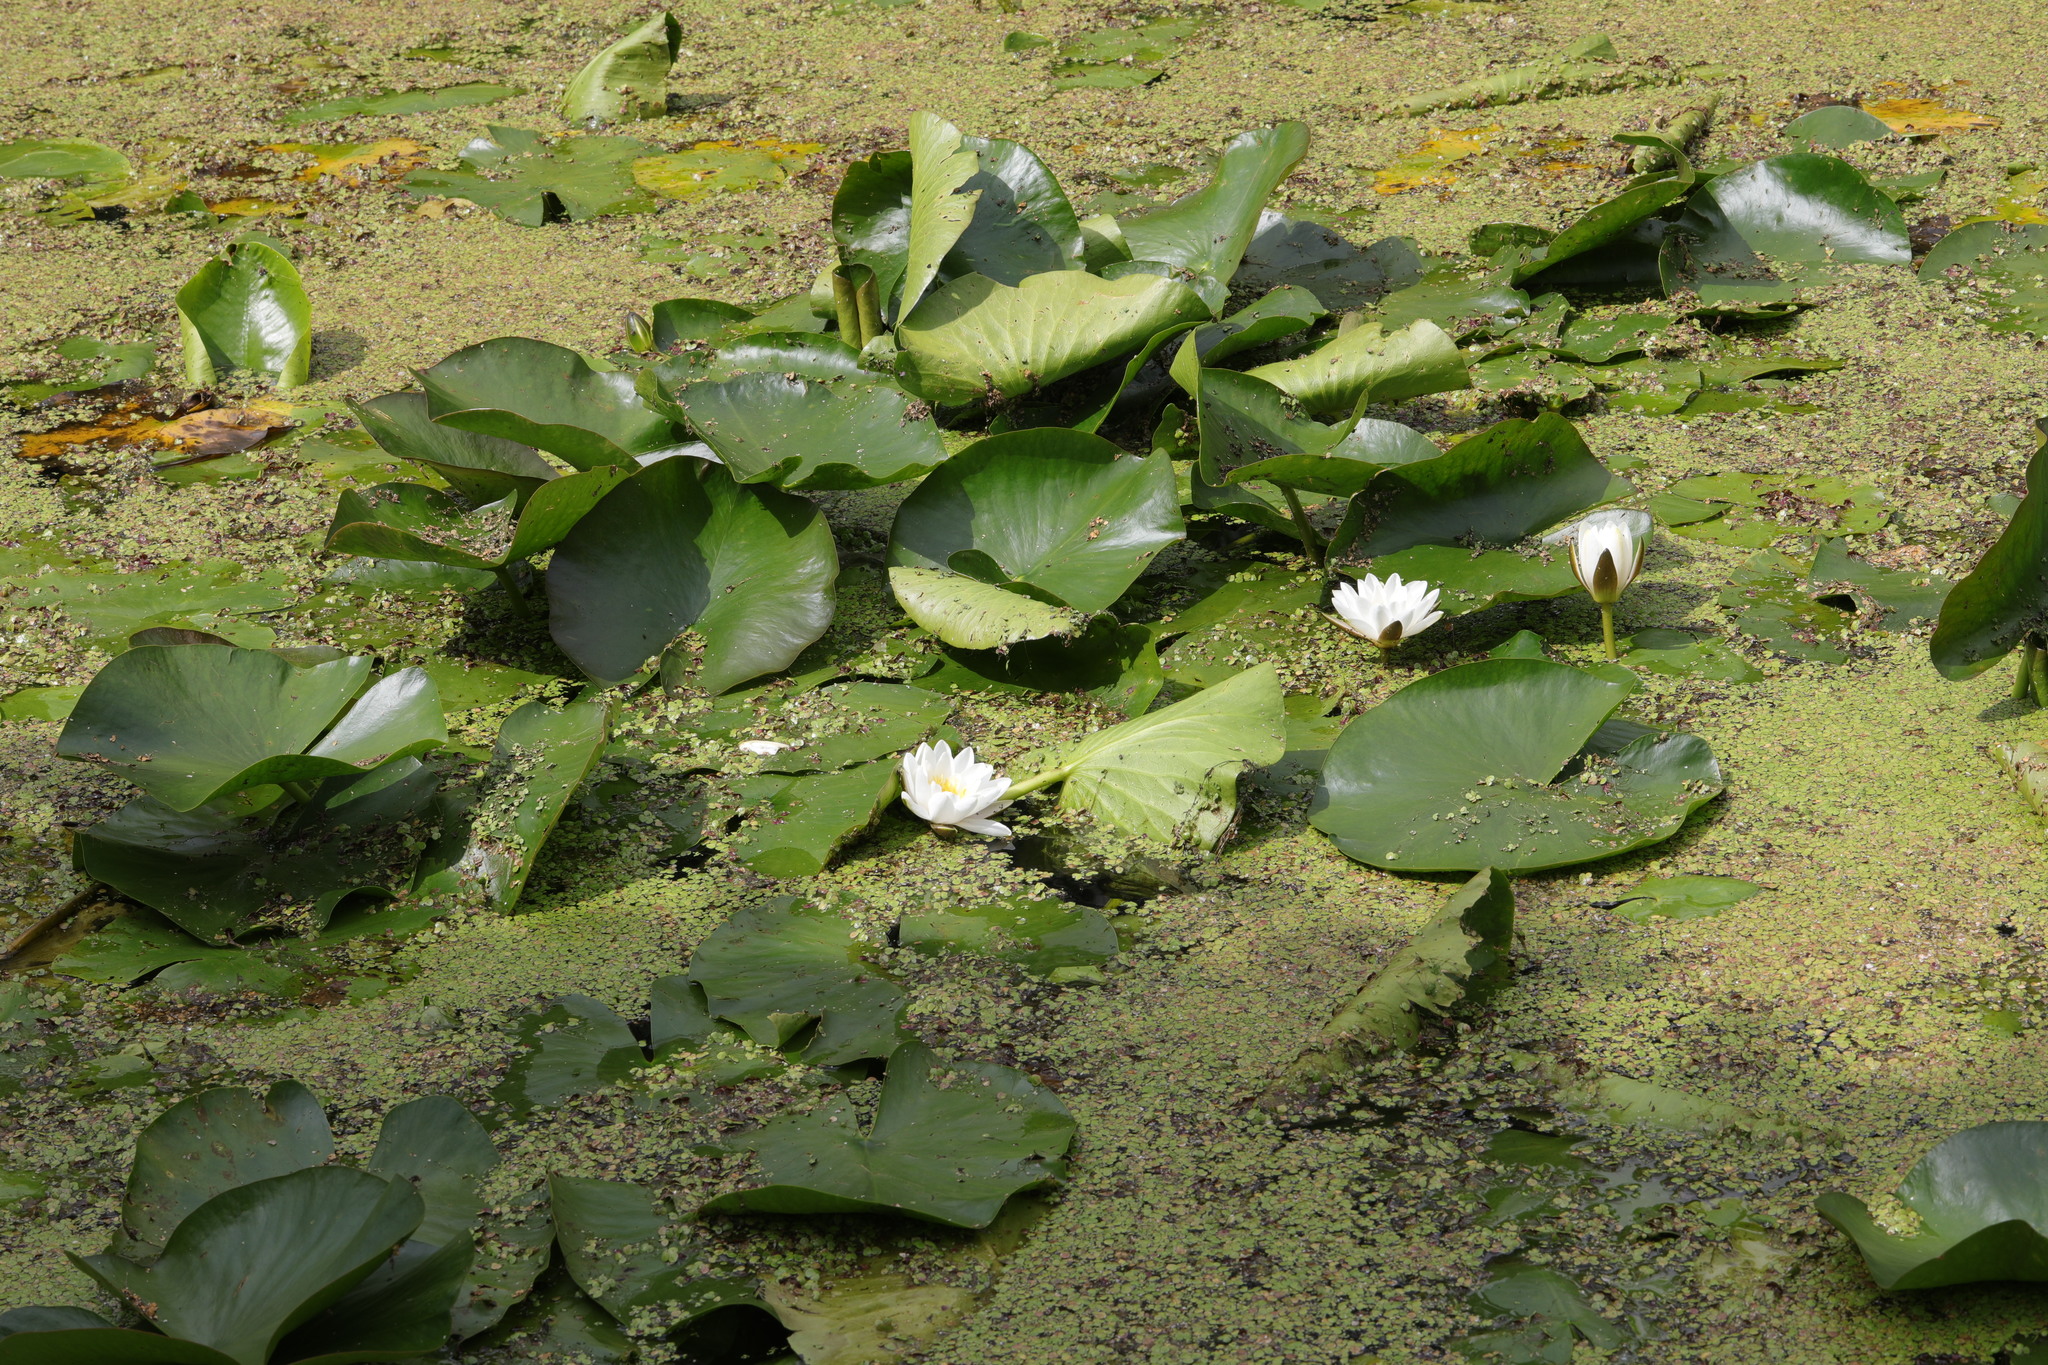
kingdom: Plantae
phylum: Tracheophyta
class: Magnoliopsida
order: Nymphaeales
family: Nymphaeaceae
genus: Nymphaea
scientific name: Nymphaea alba
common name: White water-lily
